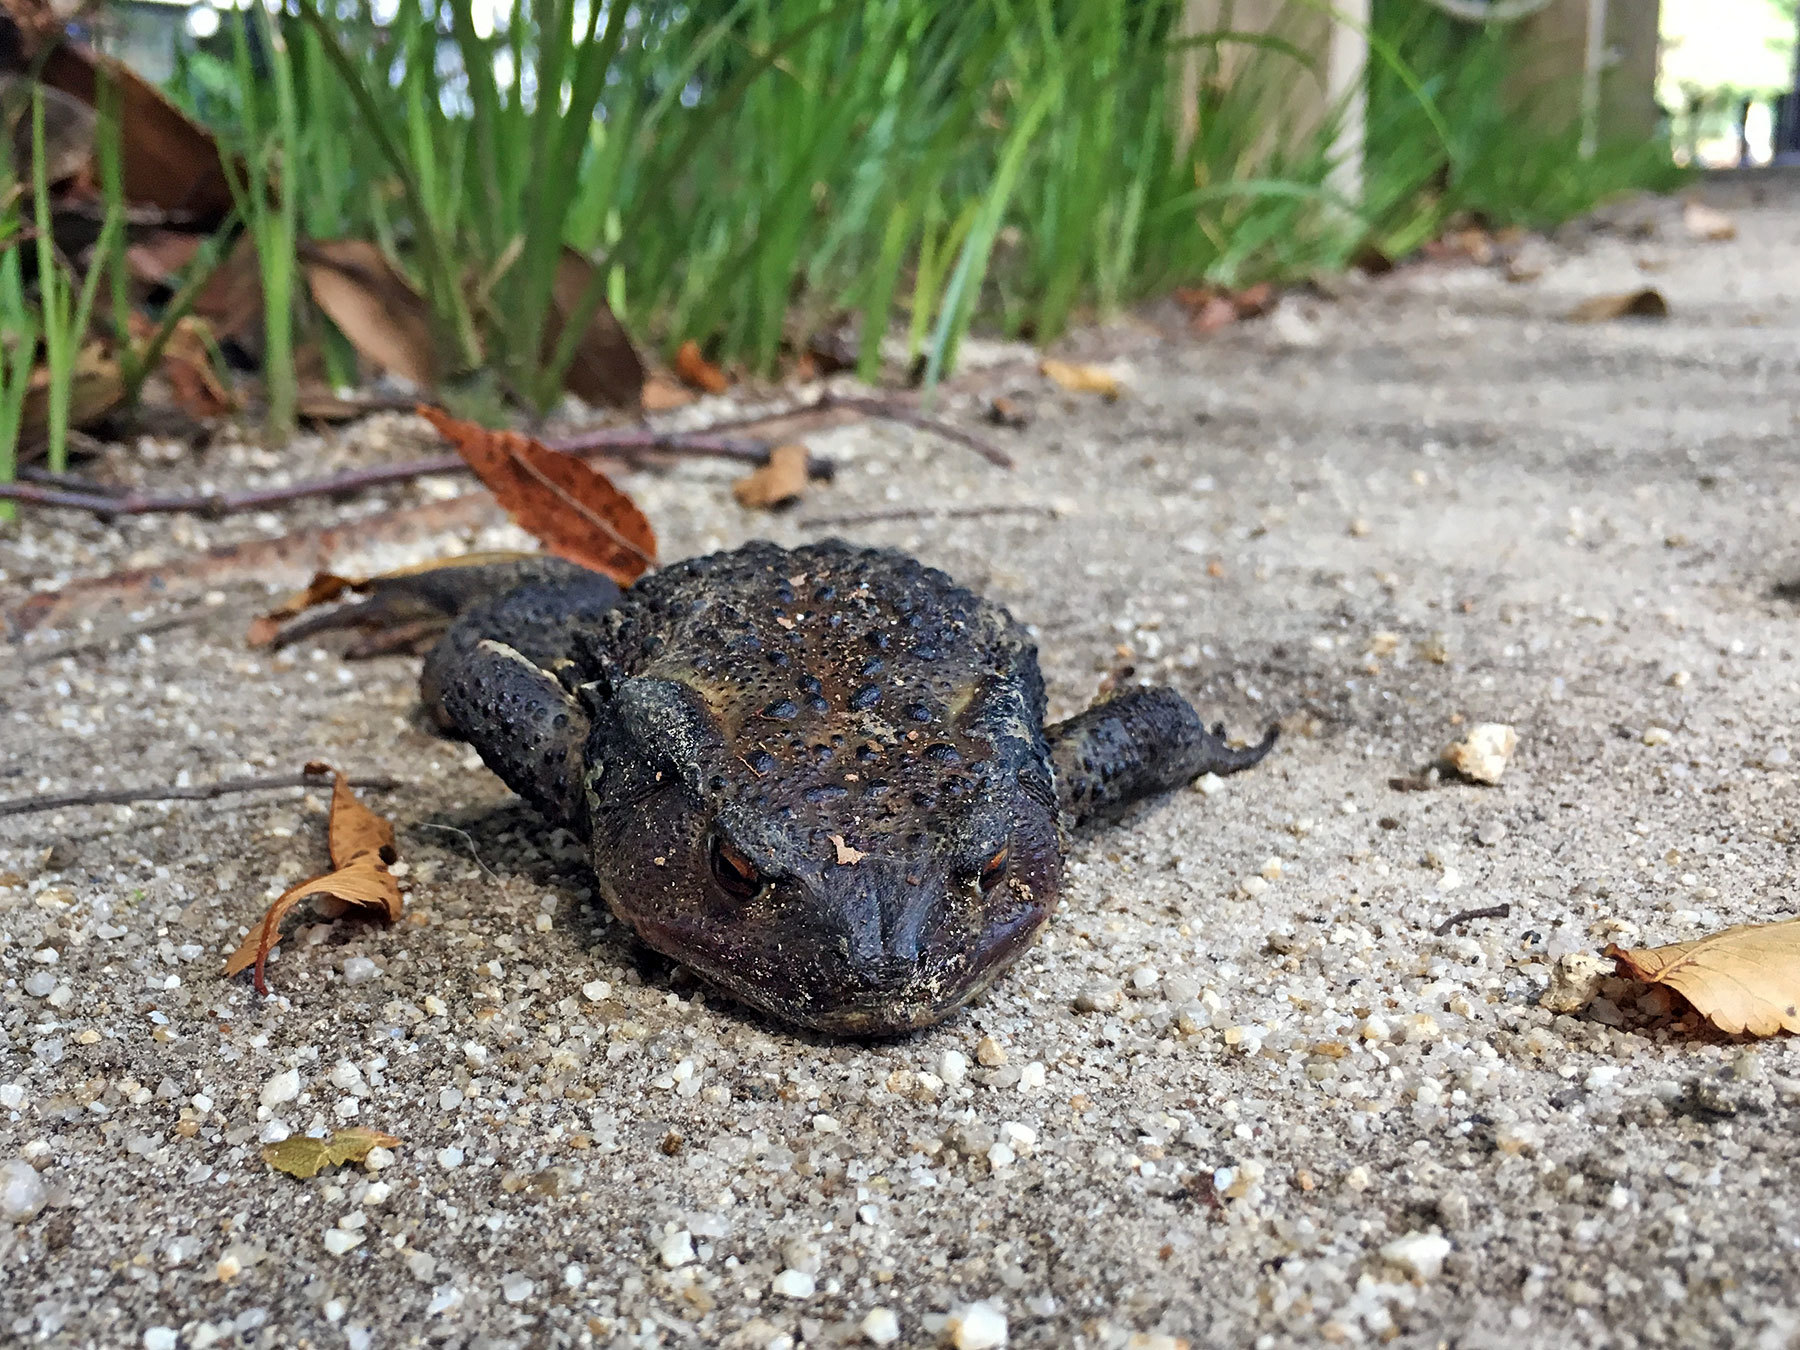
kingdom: Animalia
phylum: Chordata
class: Amphibia
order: Anura
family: Bufonidae
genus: Bufo
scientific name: Bufo japonicus
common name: Japanese common toad
